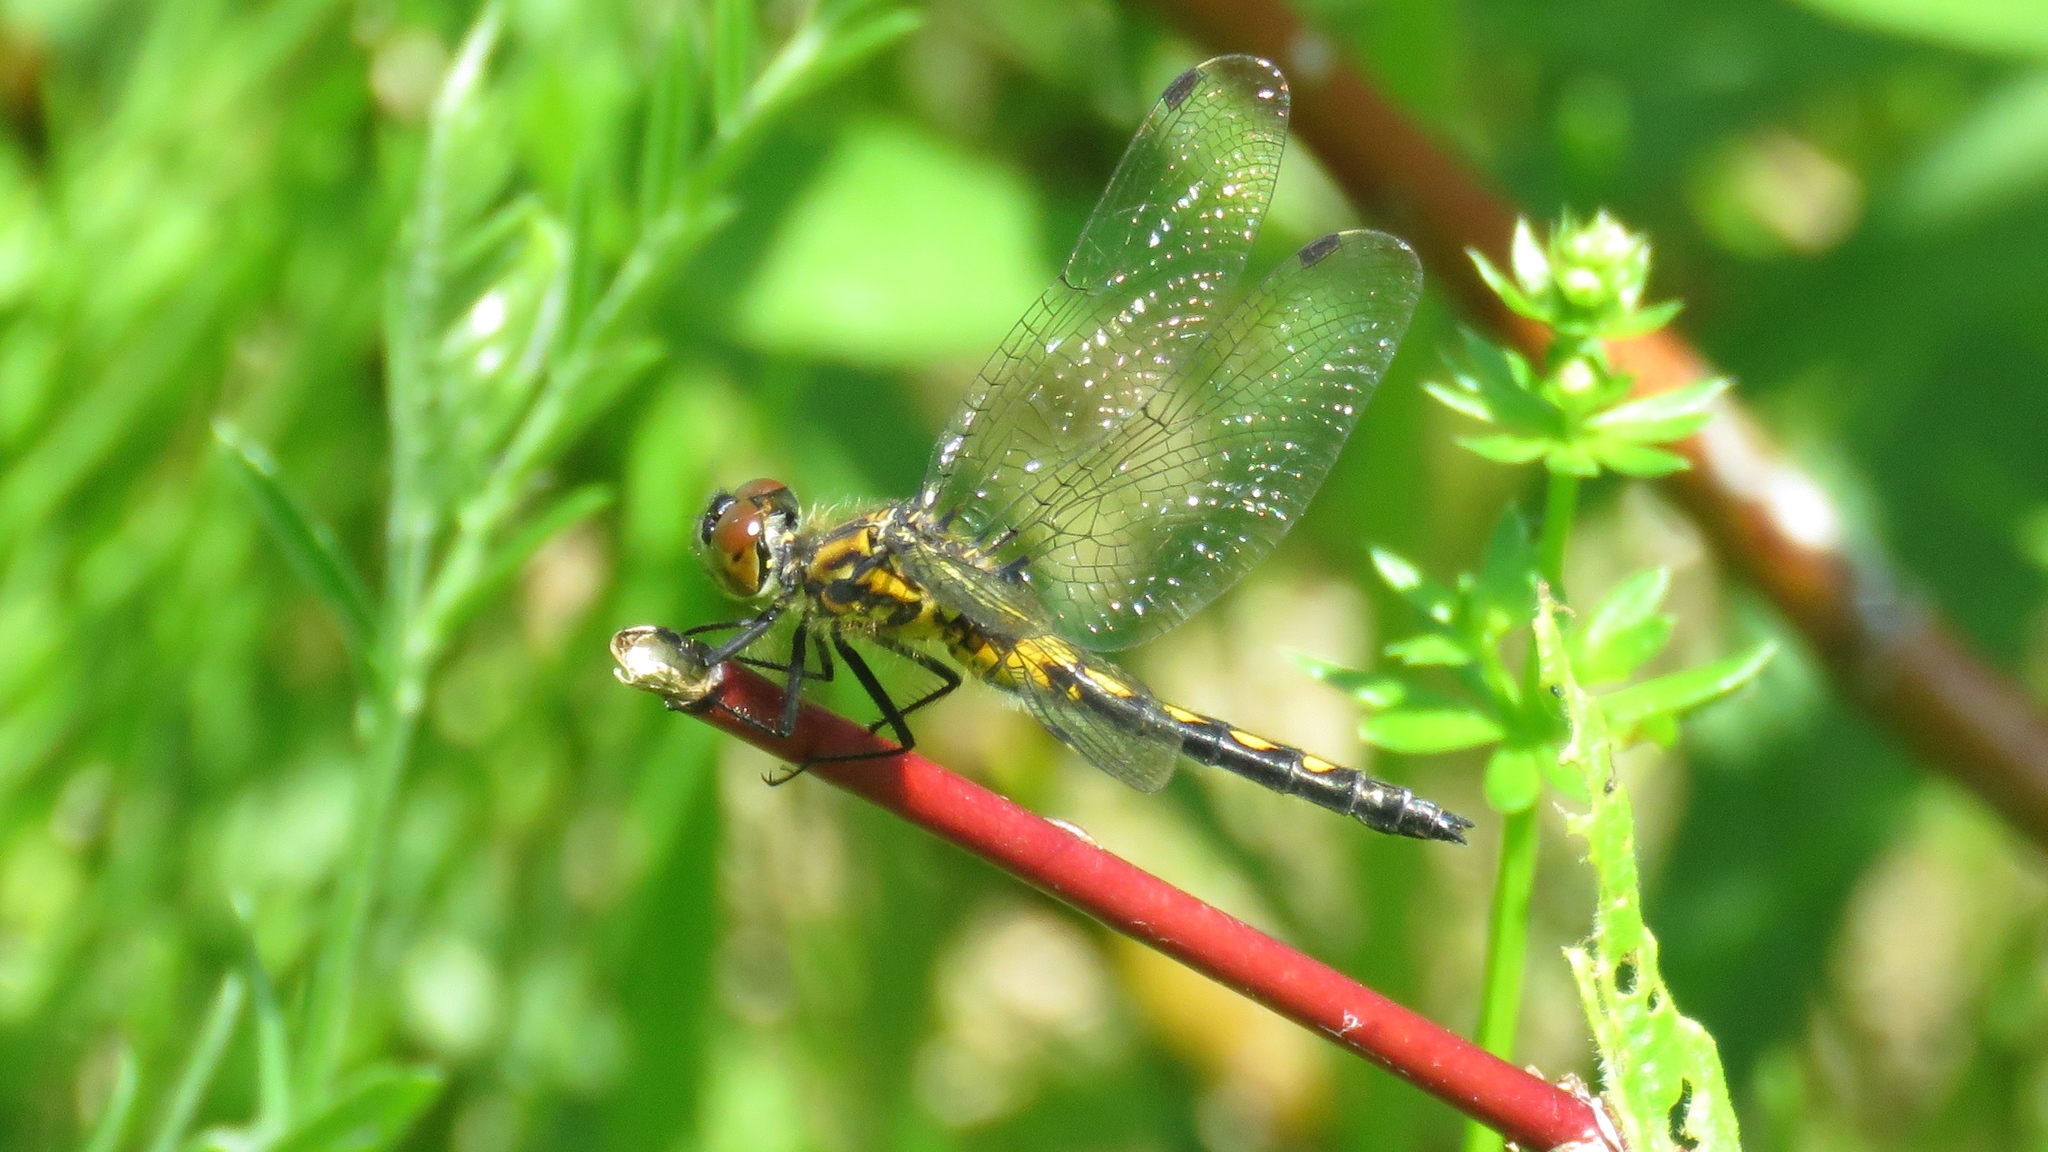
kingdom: Animalia
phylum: Arthropoda
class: Insecta
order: Odonata
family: Libellulidae
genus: Leucorrhinia
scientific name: Leucorrhinia hudsonica
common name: Hudsonian whiteface
